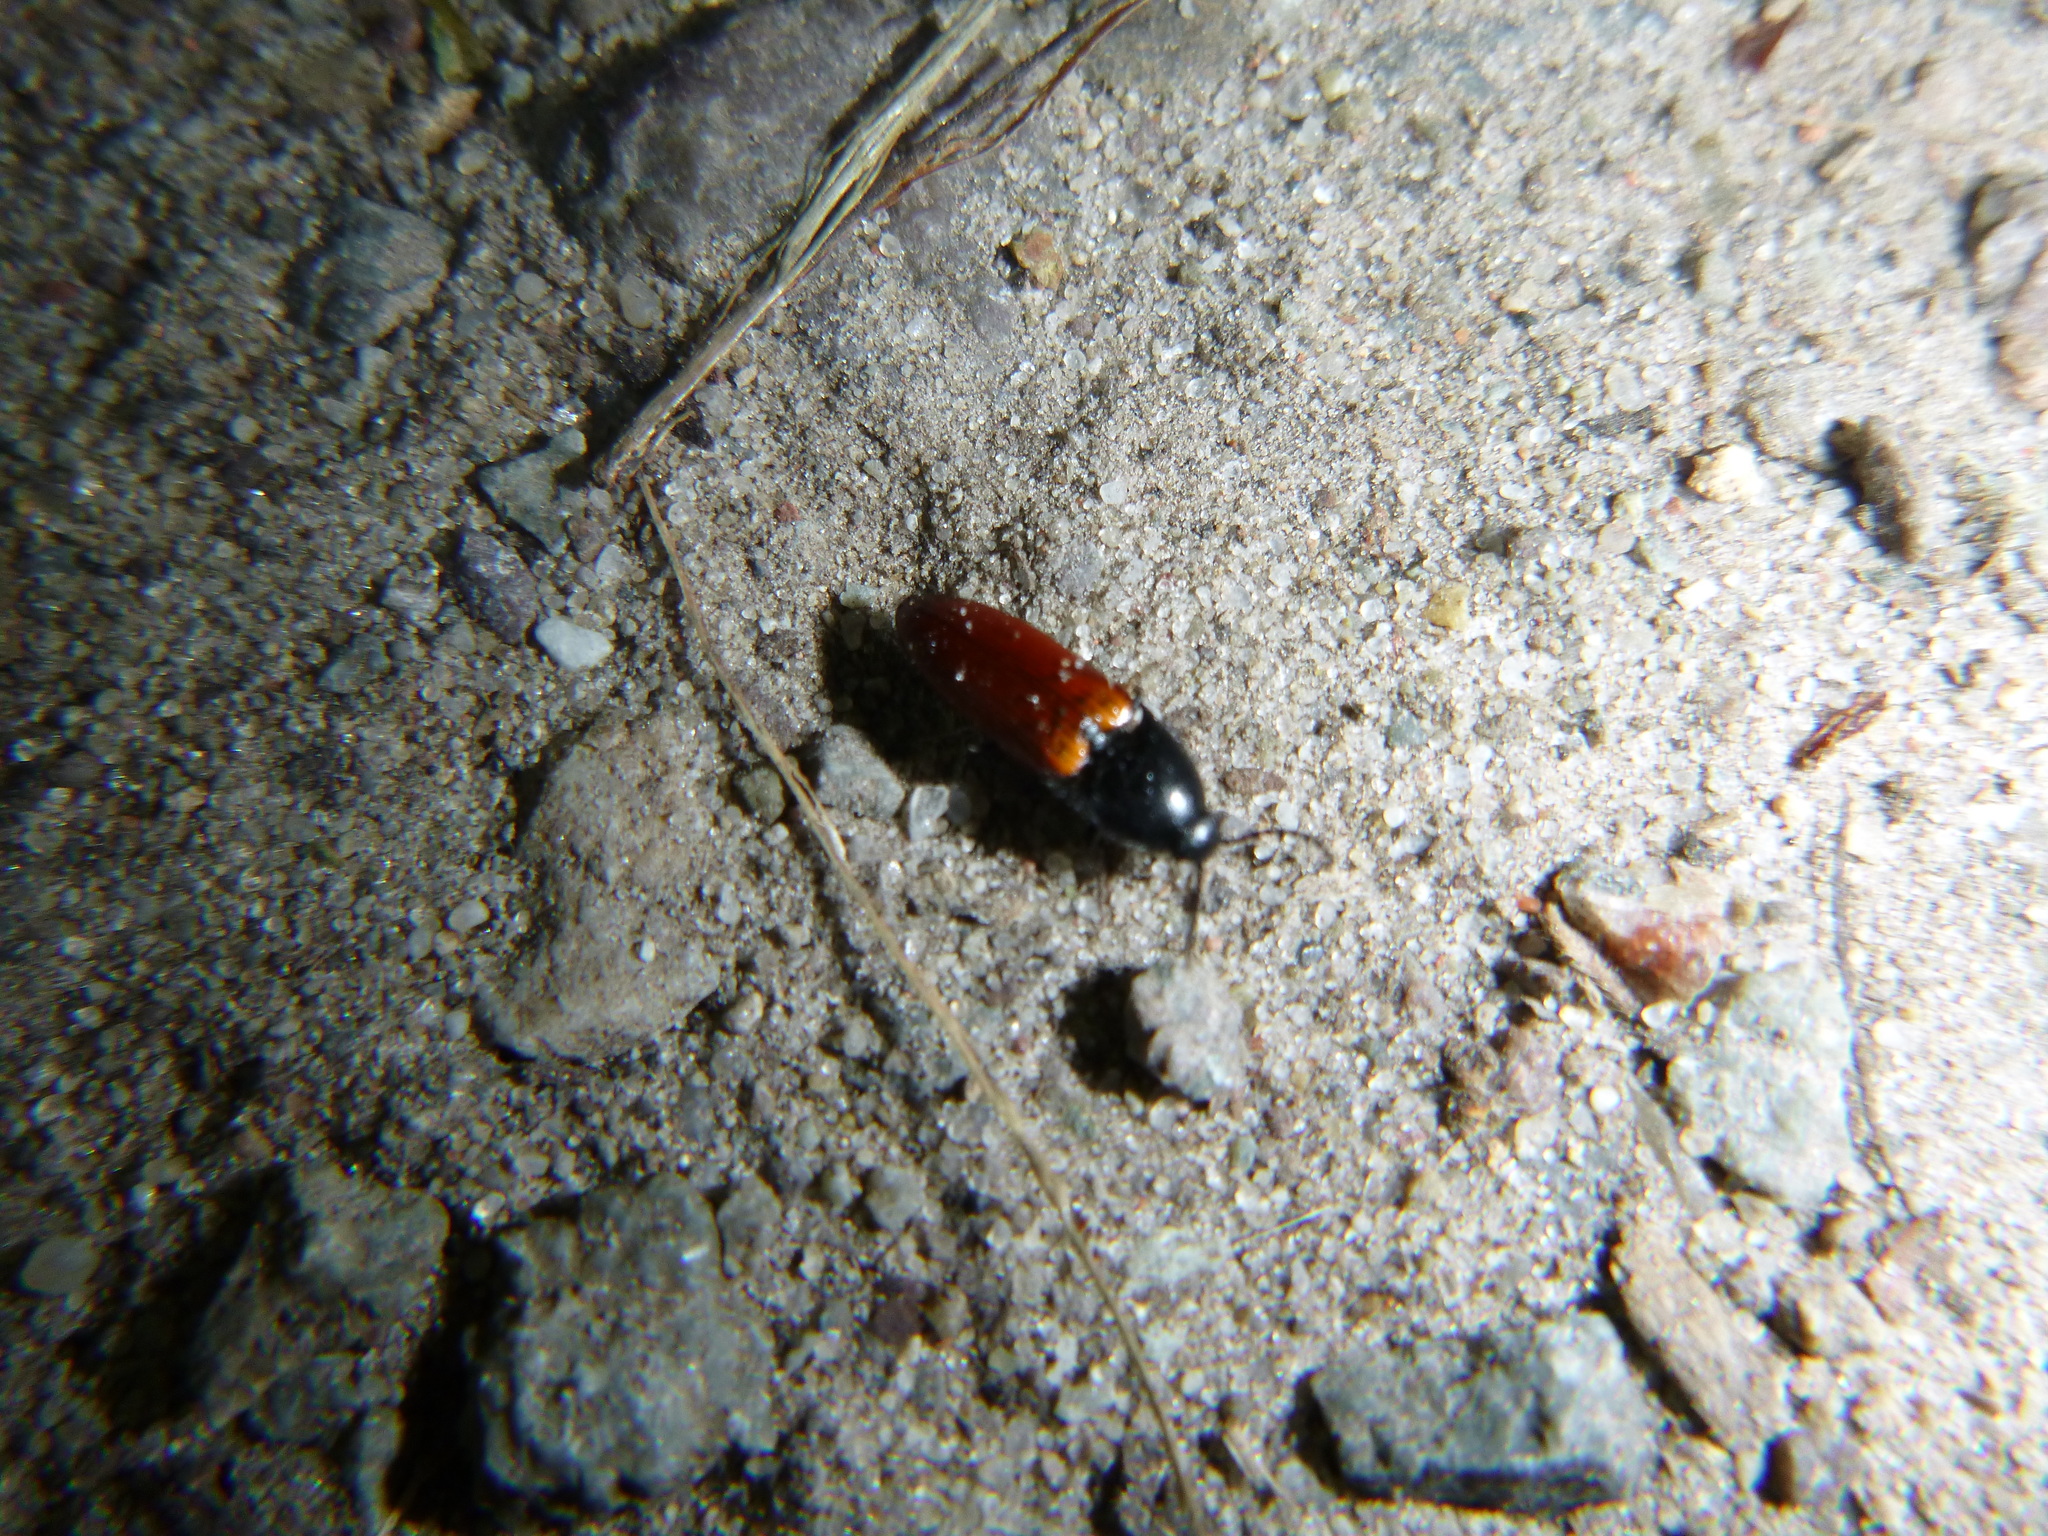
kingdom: Animalia
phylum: Arthropoda
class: Insecta
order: Coleoptera
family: Elateridae
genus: Ampedus
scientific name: Ampedus pomorum
